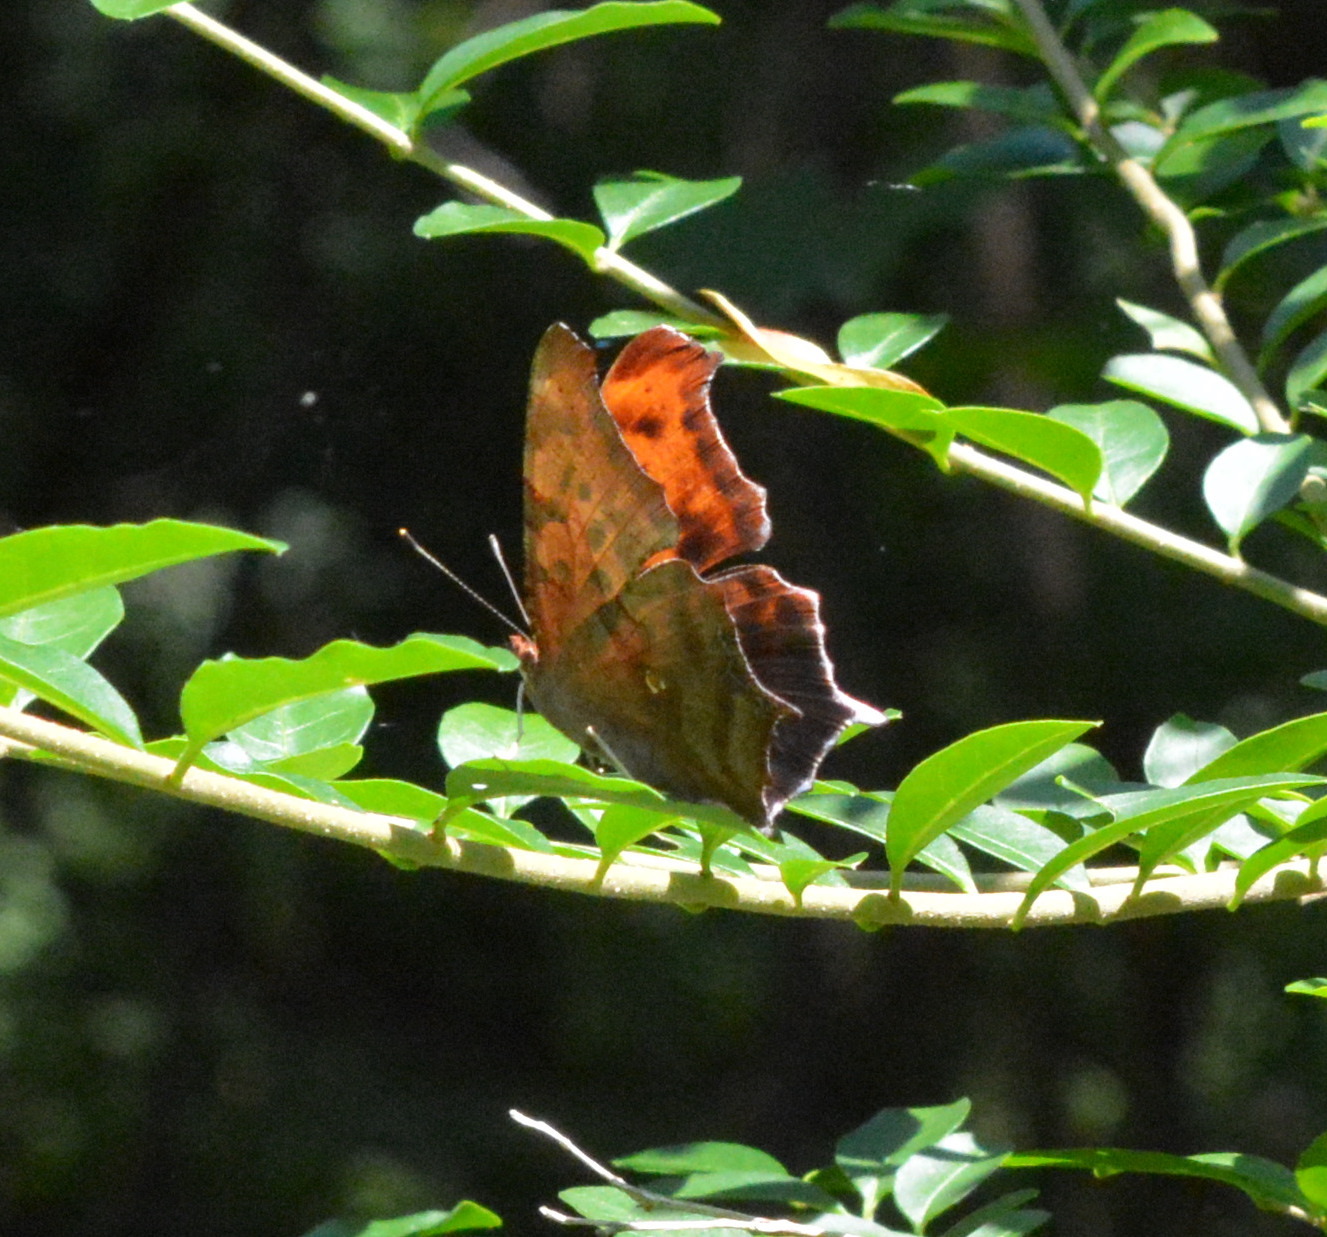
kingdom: Animalia
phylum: Arthropoda
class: Insecta
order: Lepidoptera
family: Nymphalidae
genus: Polygonia
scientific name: Polygonia interrogationis
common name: Question mark
